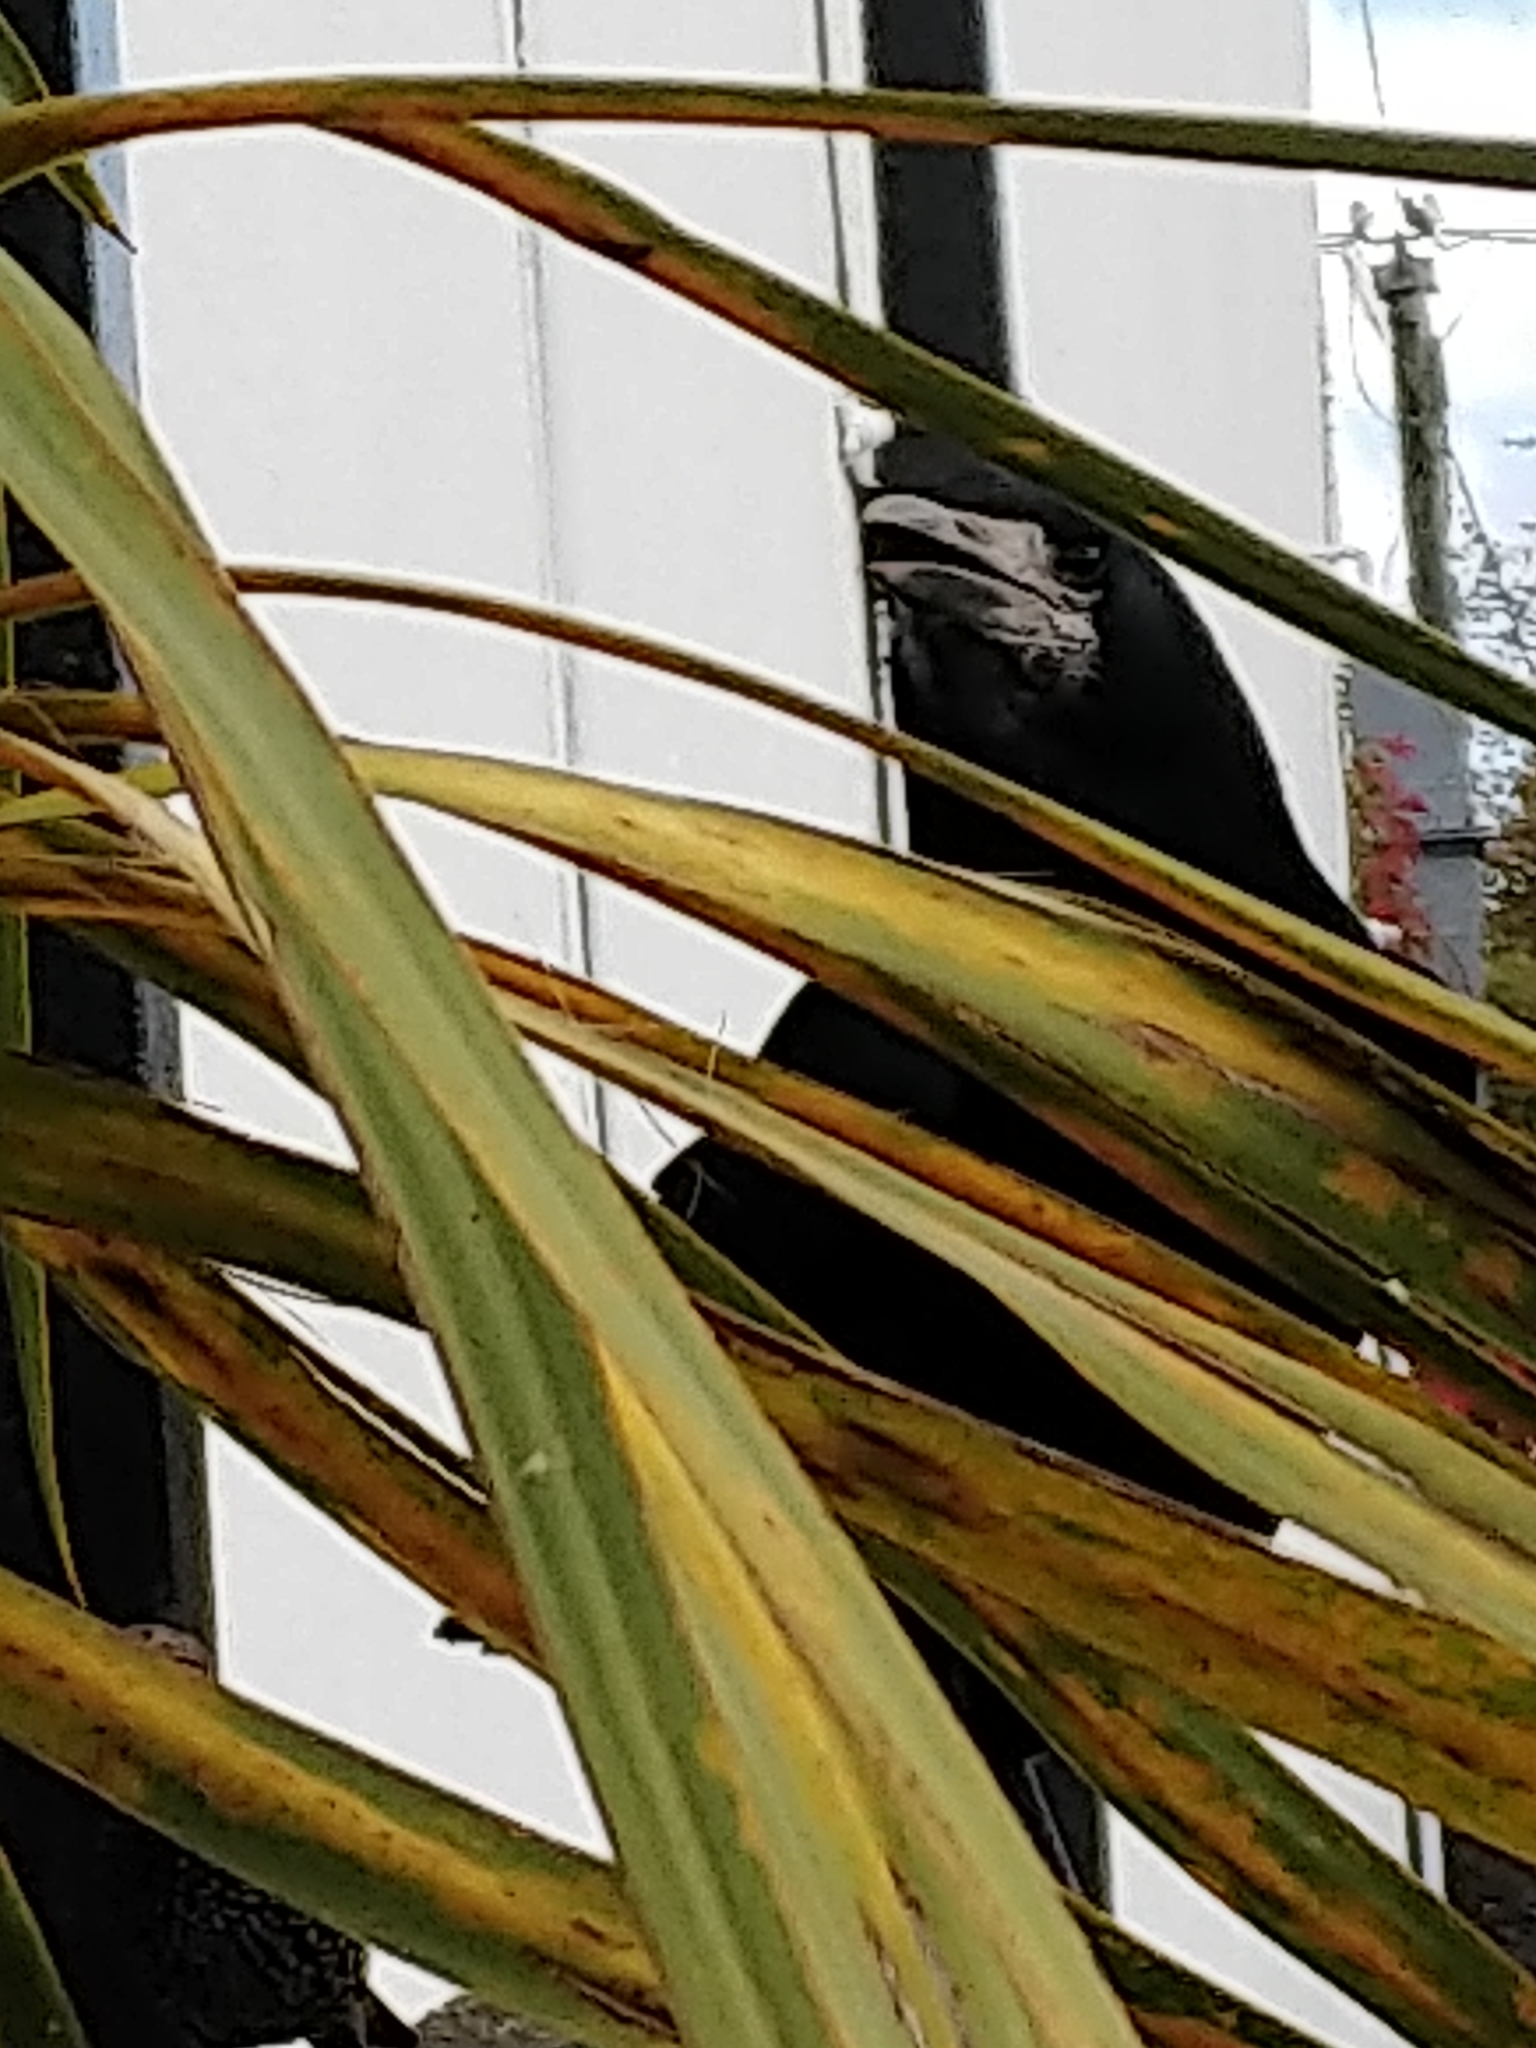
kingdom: Animalia
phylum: Chordata
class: Aves
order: Passeriformes
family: Corvidae
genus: Corvus
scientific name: Corvus frugilegus
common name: Rook
